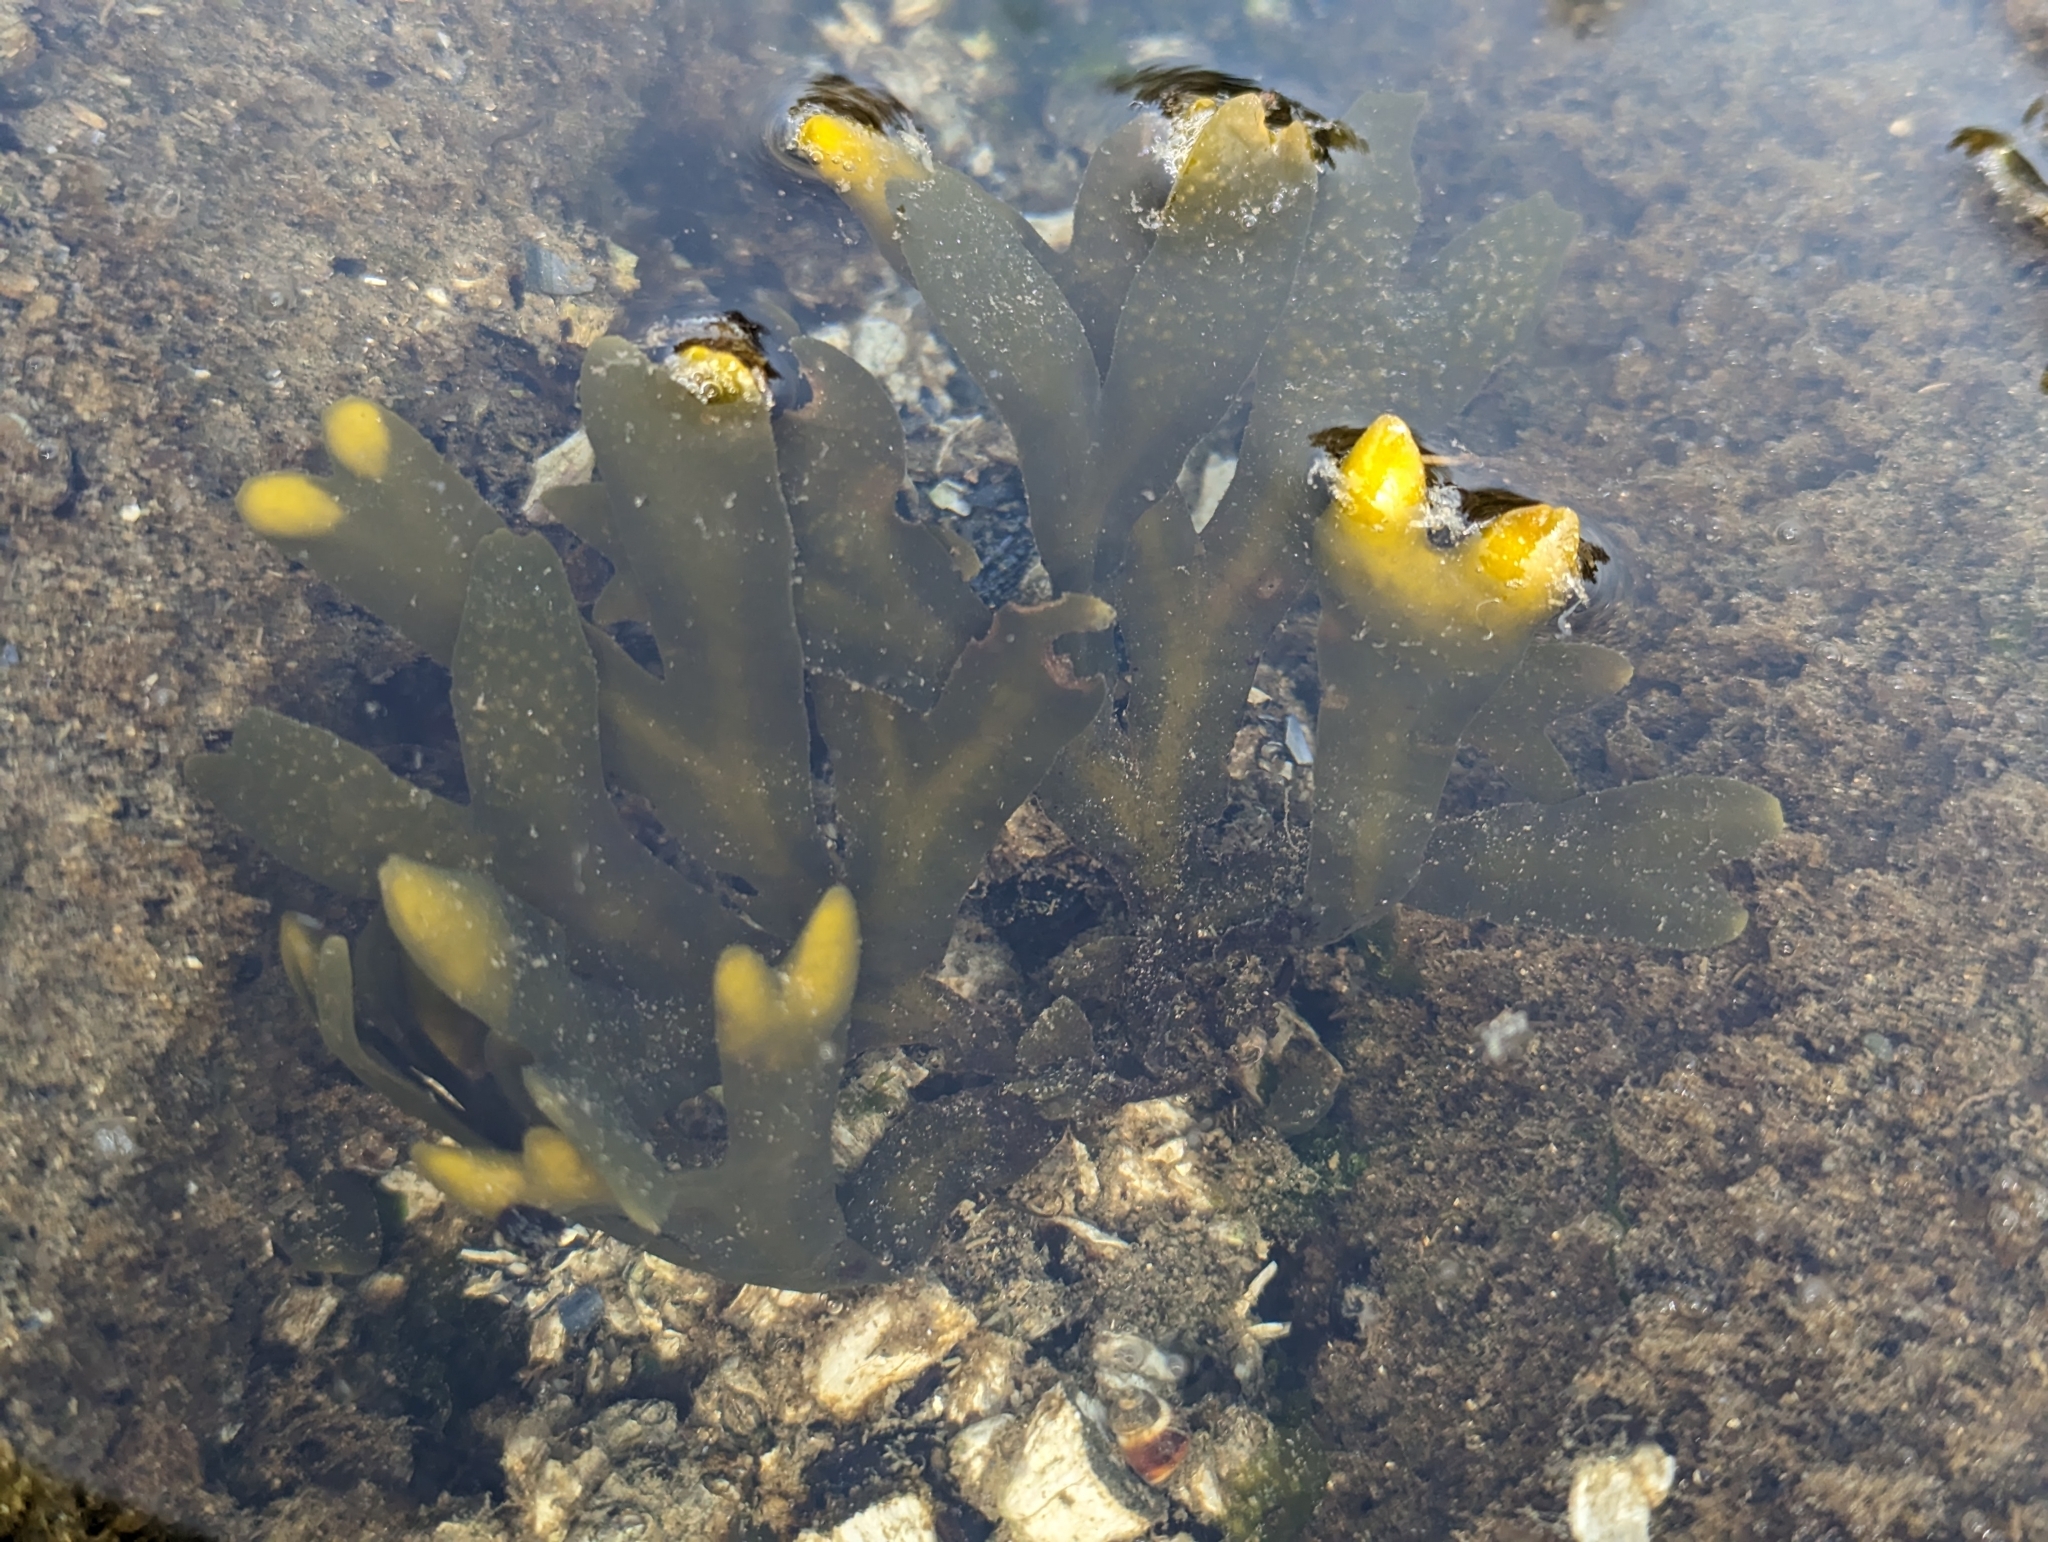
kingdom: Chromista
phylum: Ochrophyta
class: Phaeophyceae
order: Fucales
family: Fucaceae
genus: Fucus
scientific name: Fucus distichus
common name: Rockweed
